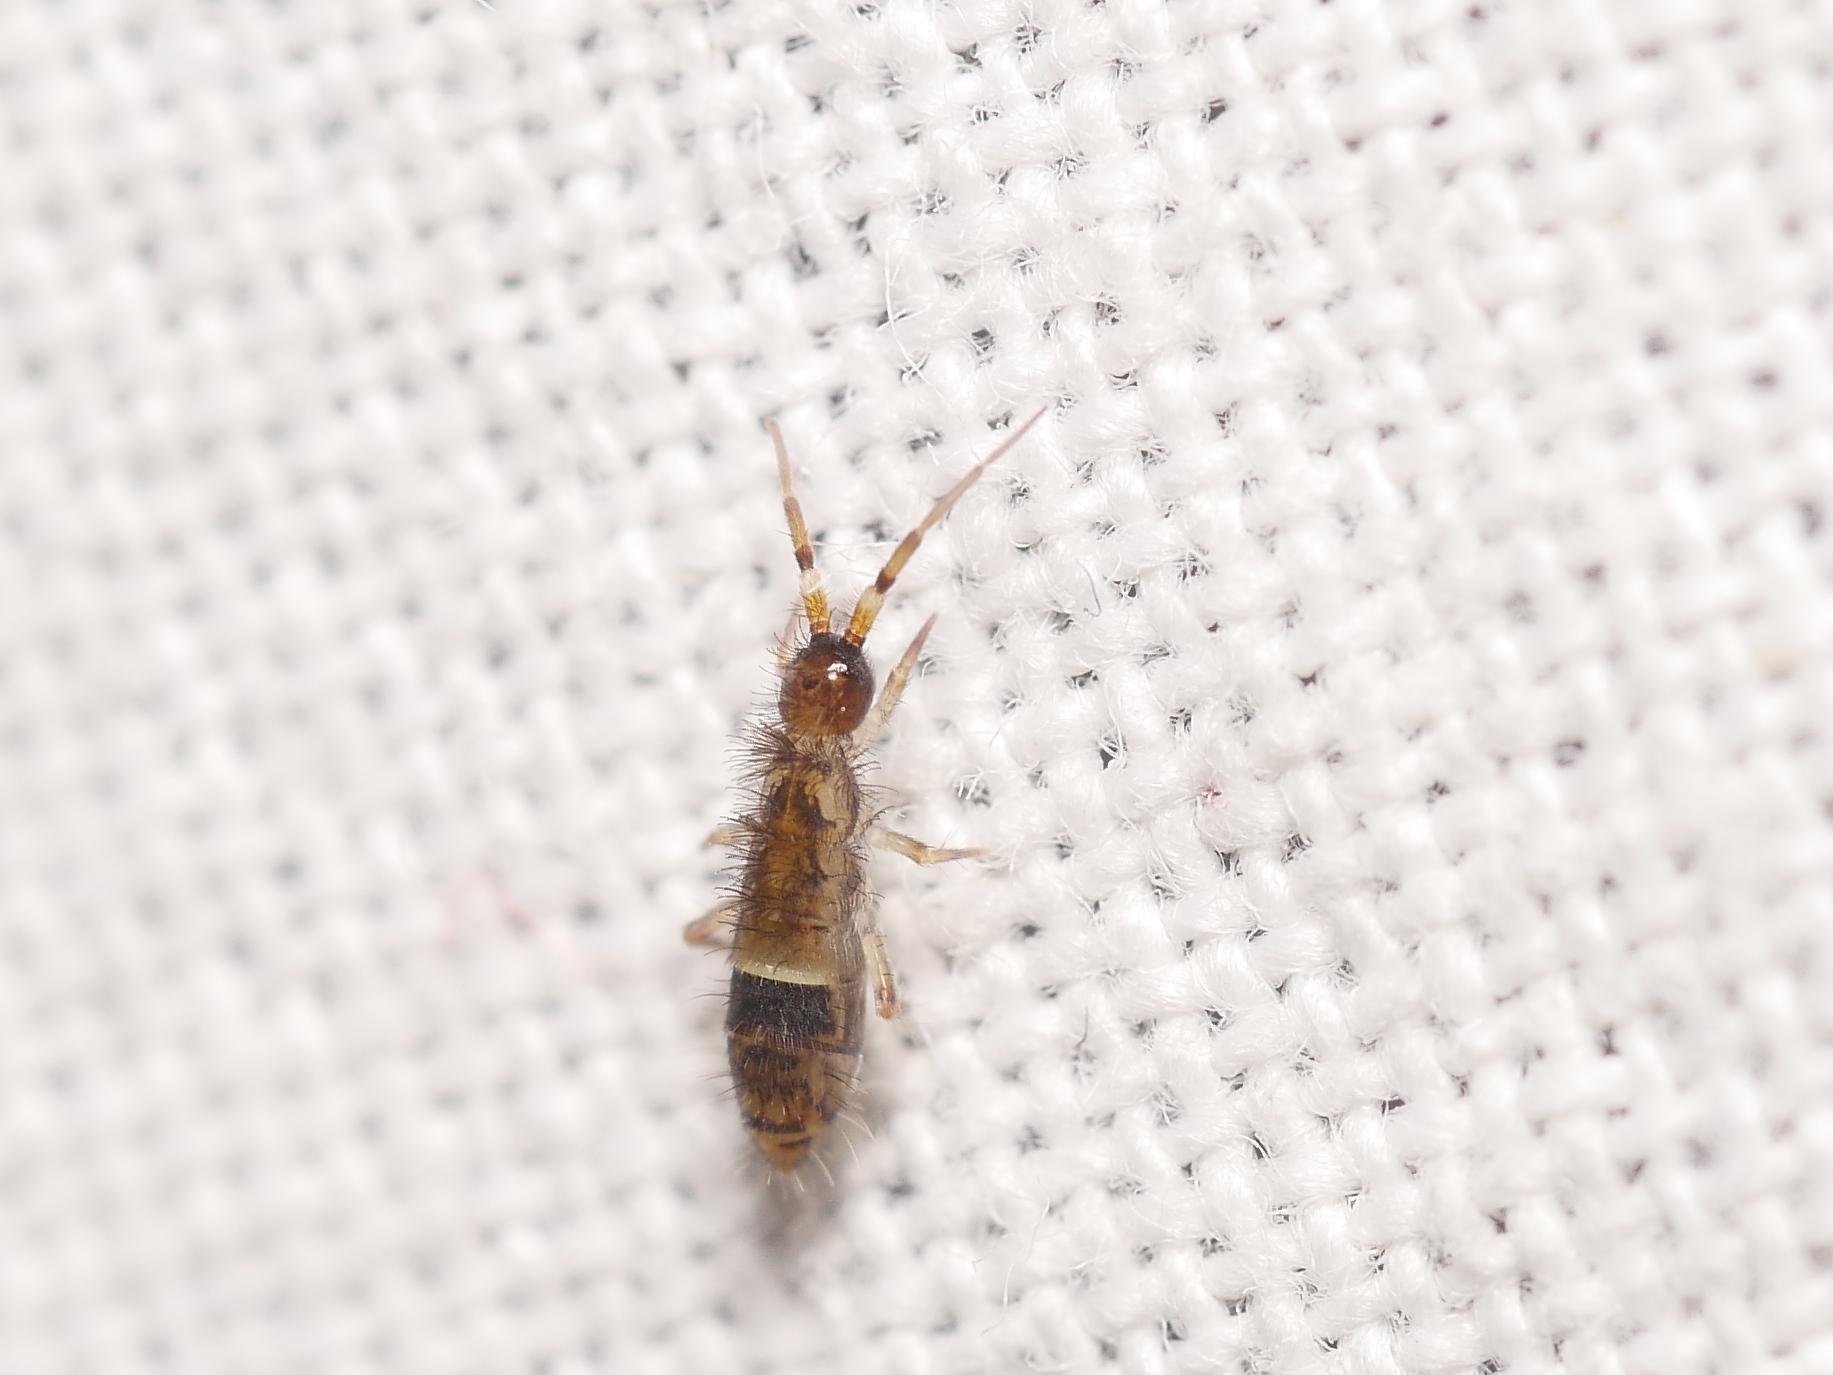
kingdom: Animalia
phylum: Arthropoda
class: Collembola
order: Entomobryomorpha
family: Orchesellidae
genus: Orchesella
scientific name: Orchesella cincta
